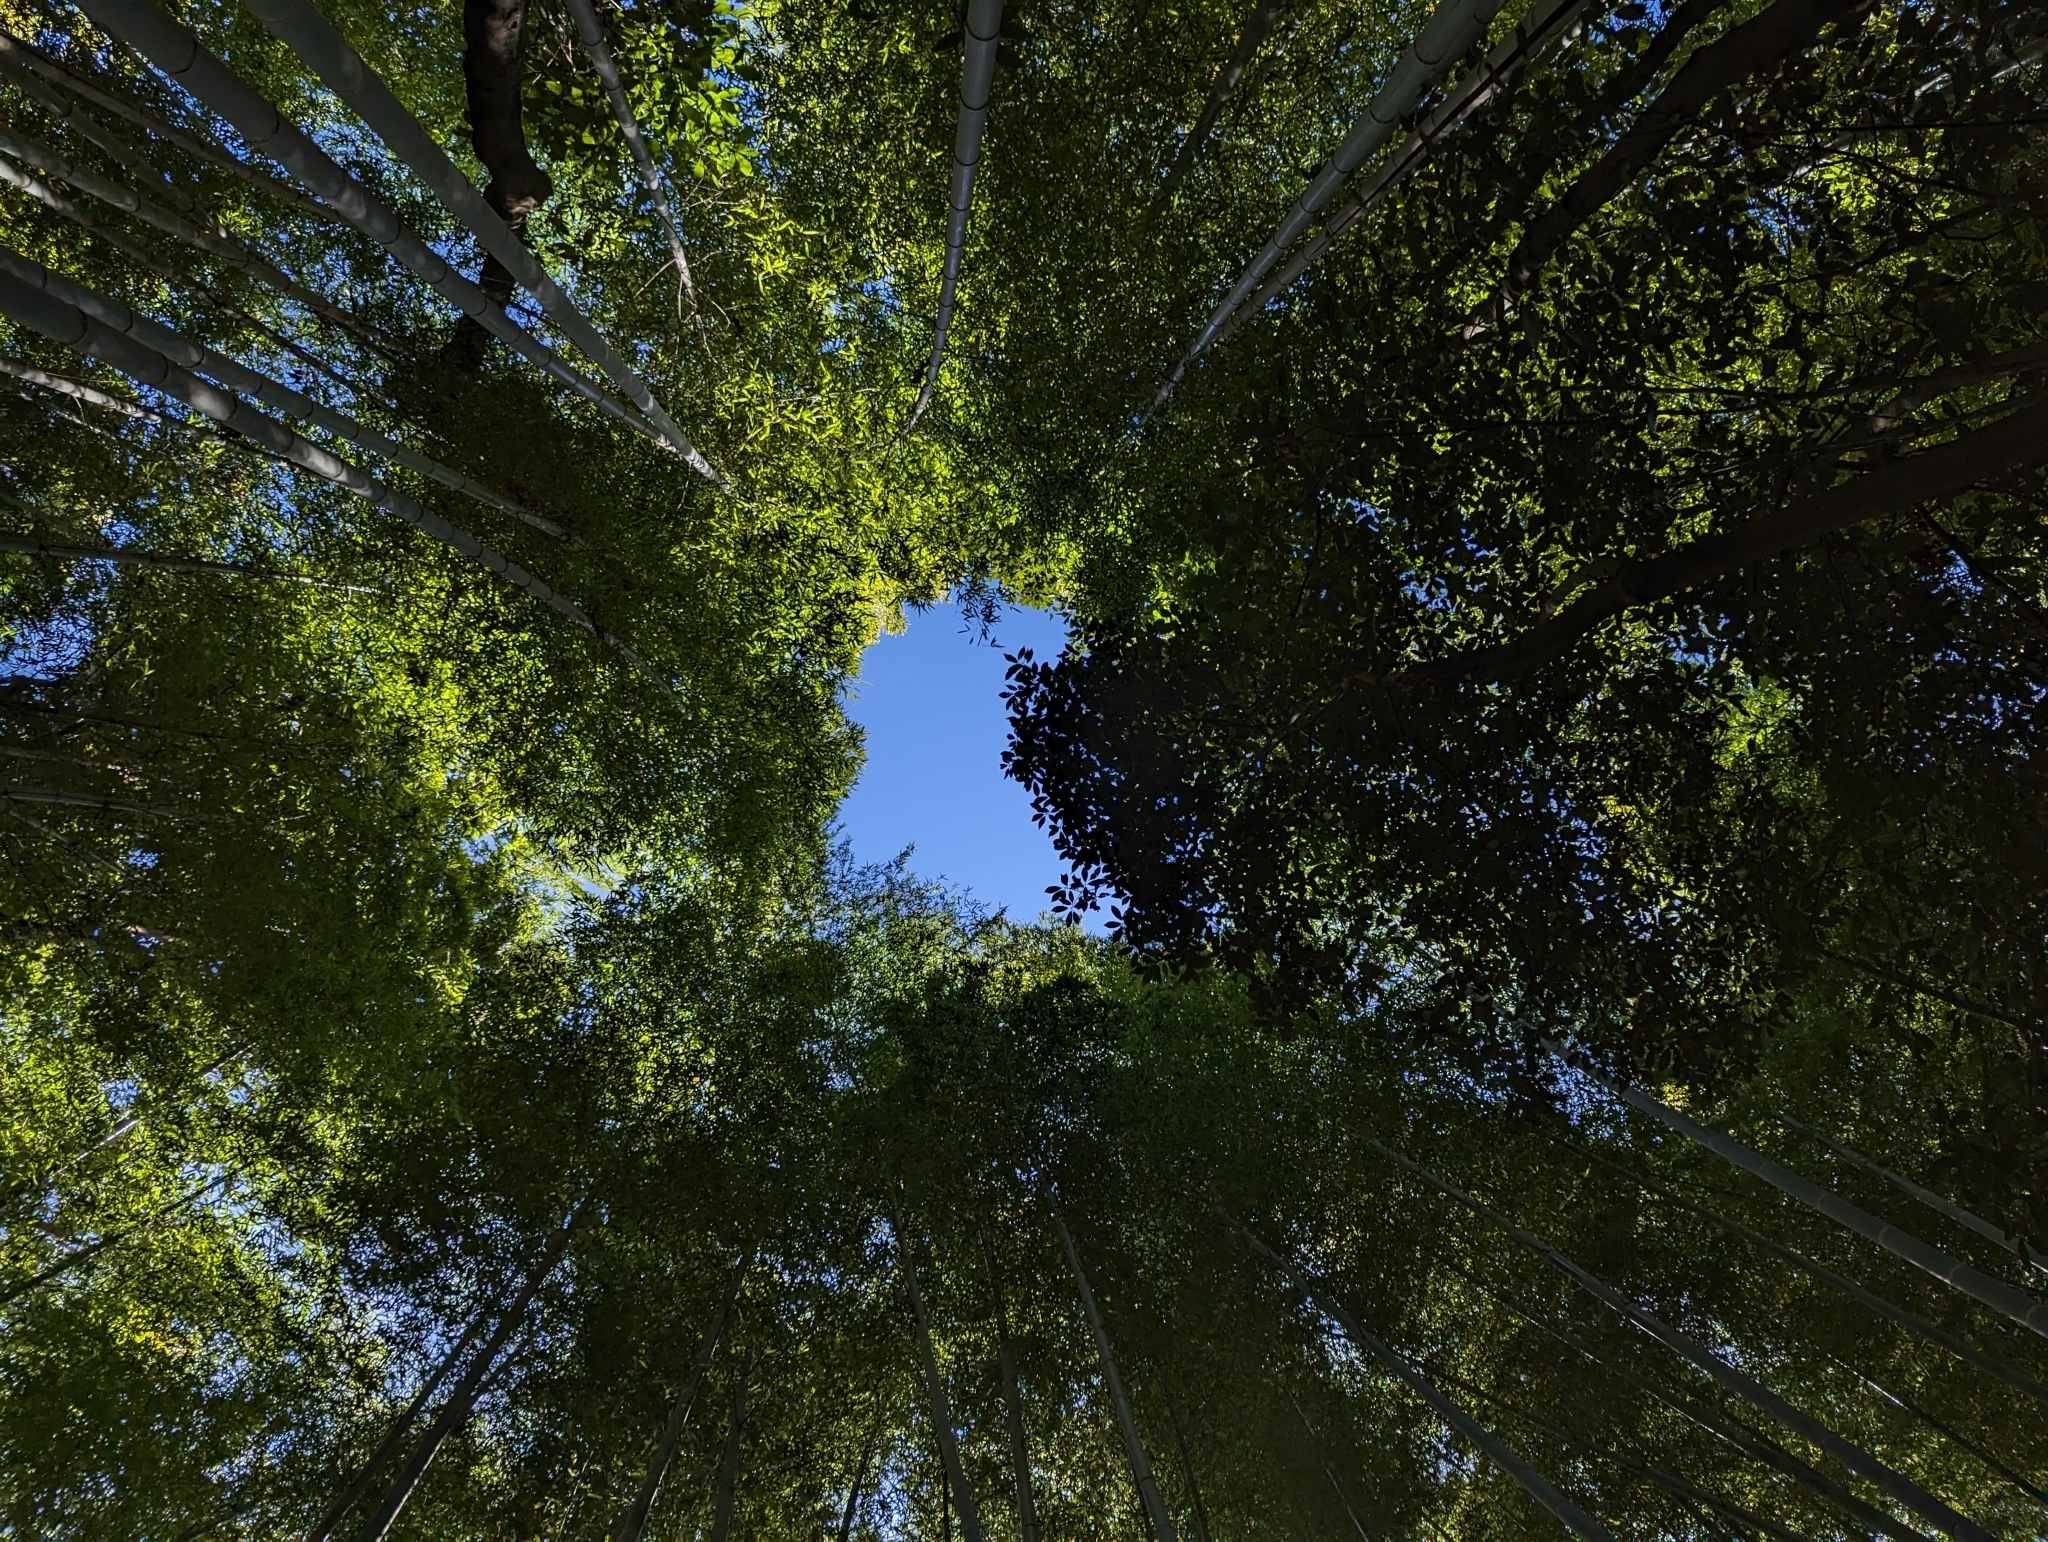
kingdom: Plantae
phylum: Tracheophyta
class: Liliopsida
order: Poales
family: Poaceae
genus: Phyllostachys
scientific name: Phyllostachys edulis
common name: Tortoise shell bamboo
